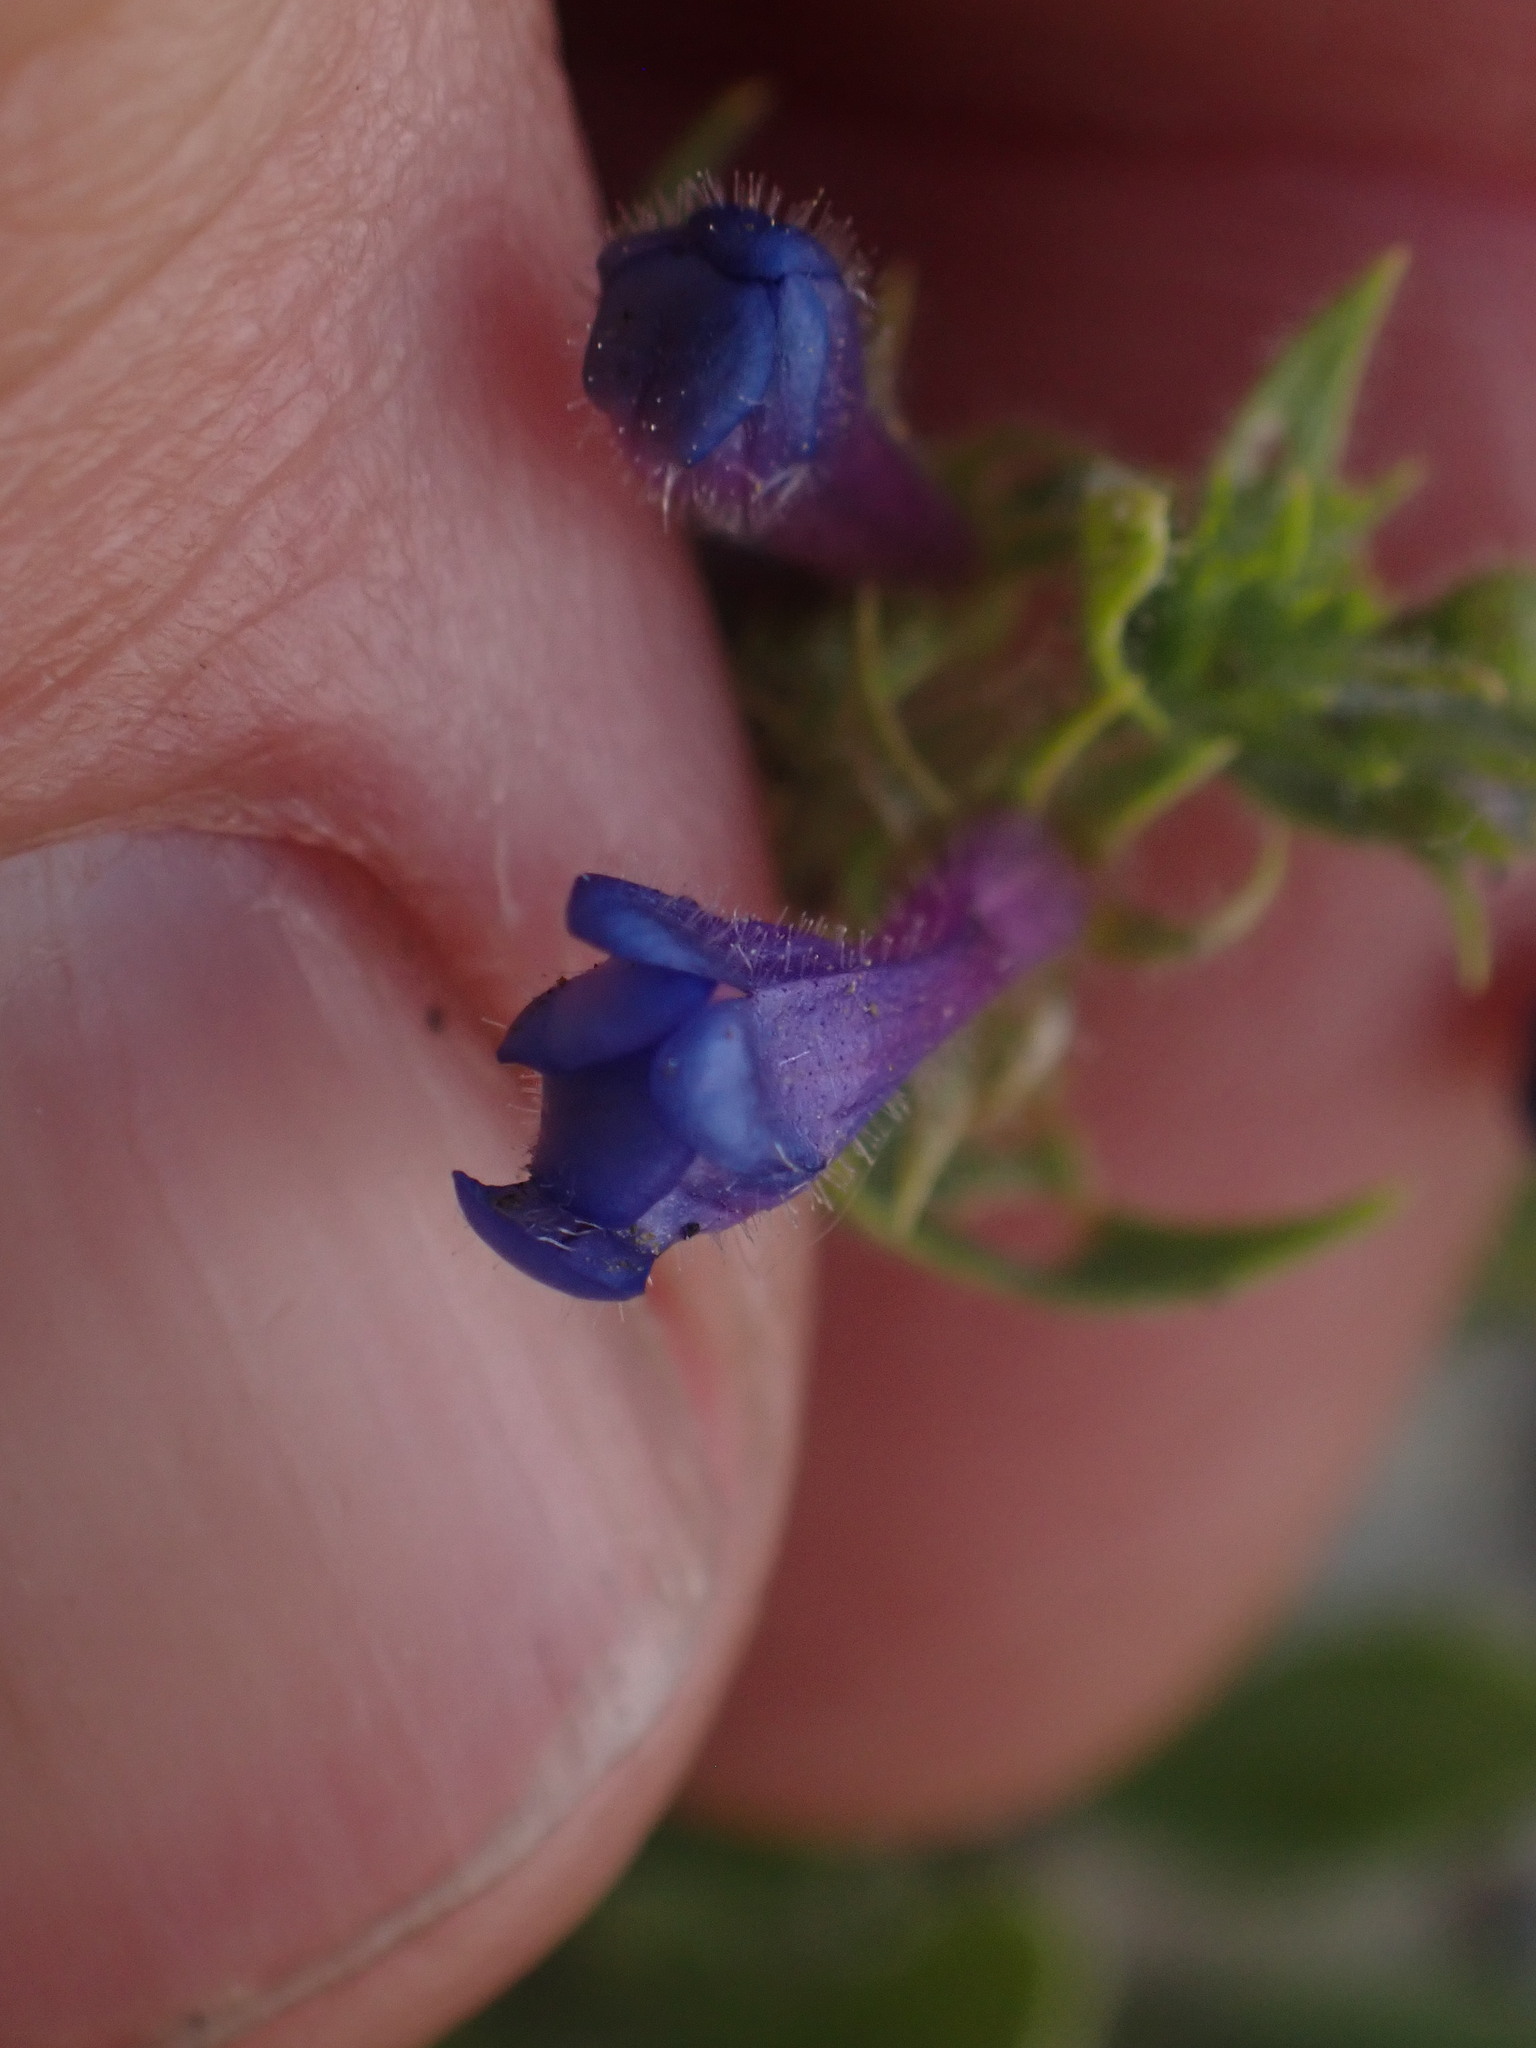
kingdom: Plantae
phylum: Tracheophyta
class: Magnoliopsida
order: Lamiales
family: Plantaginaceae
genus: Penstemon
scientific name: Penstemon pruinosus
